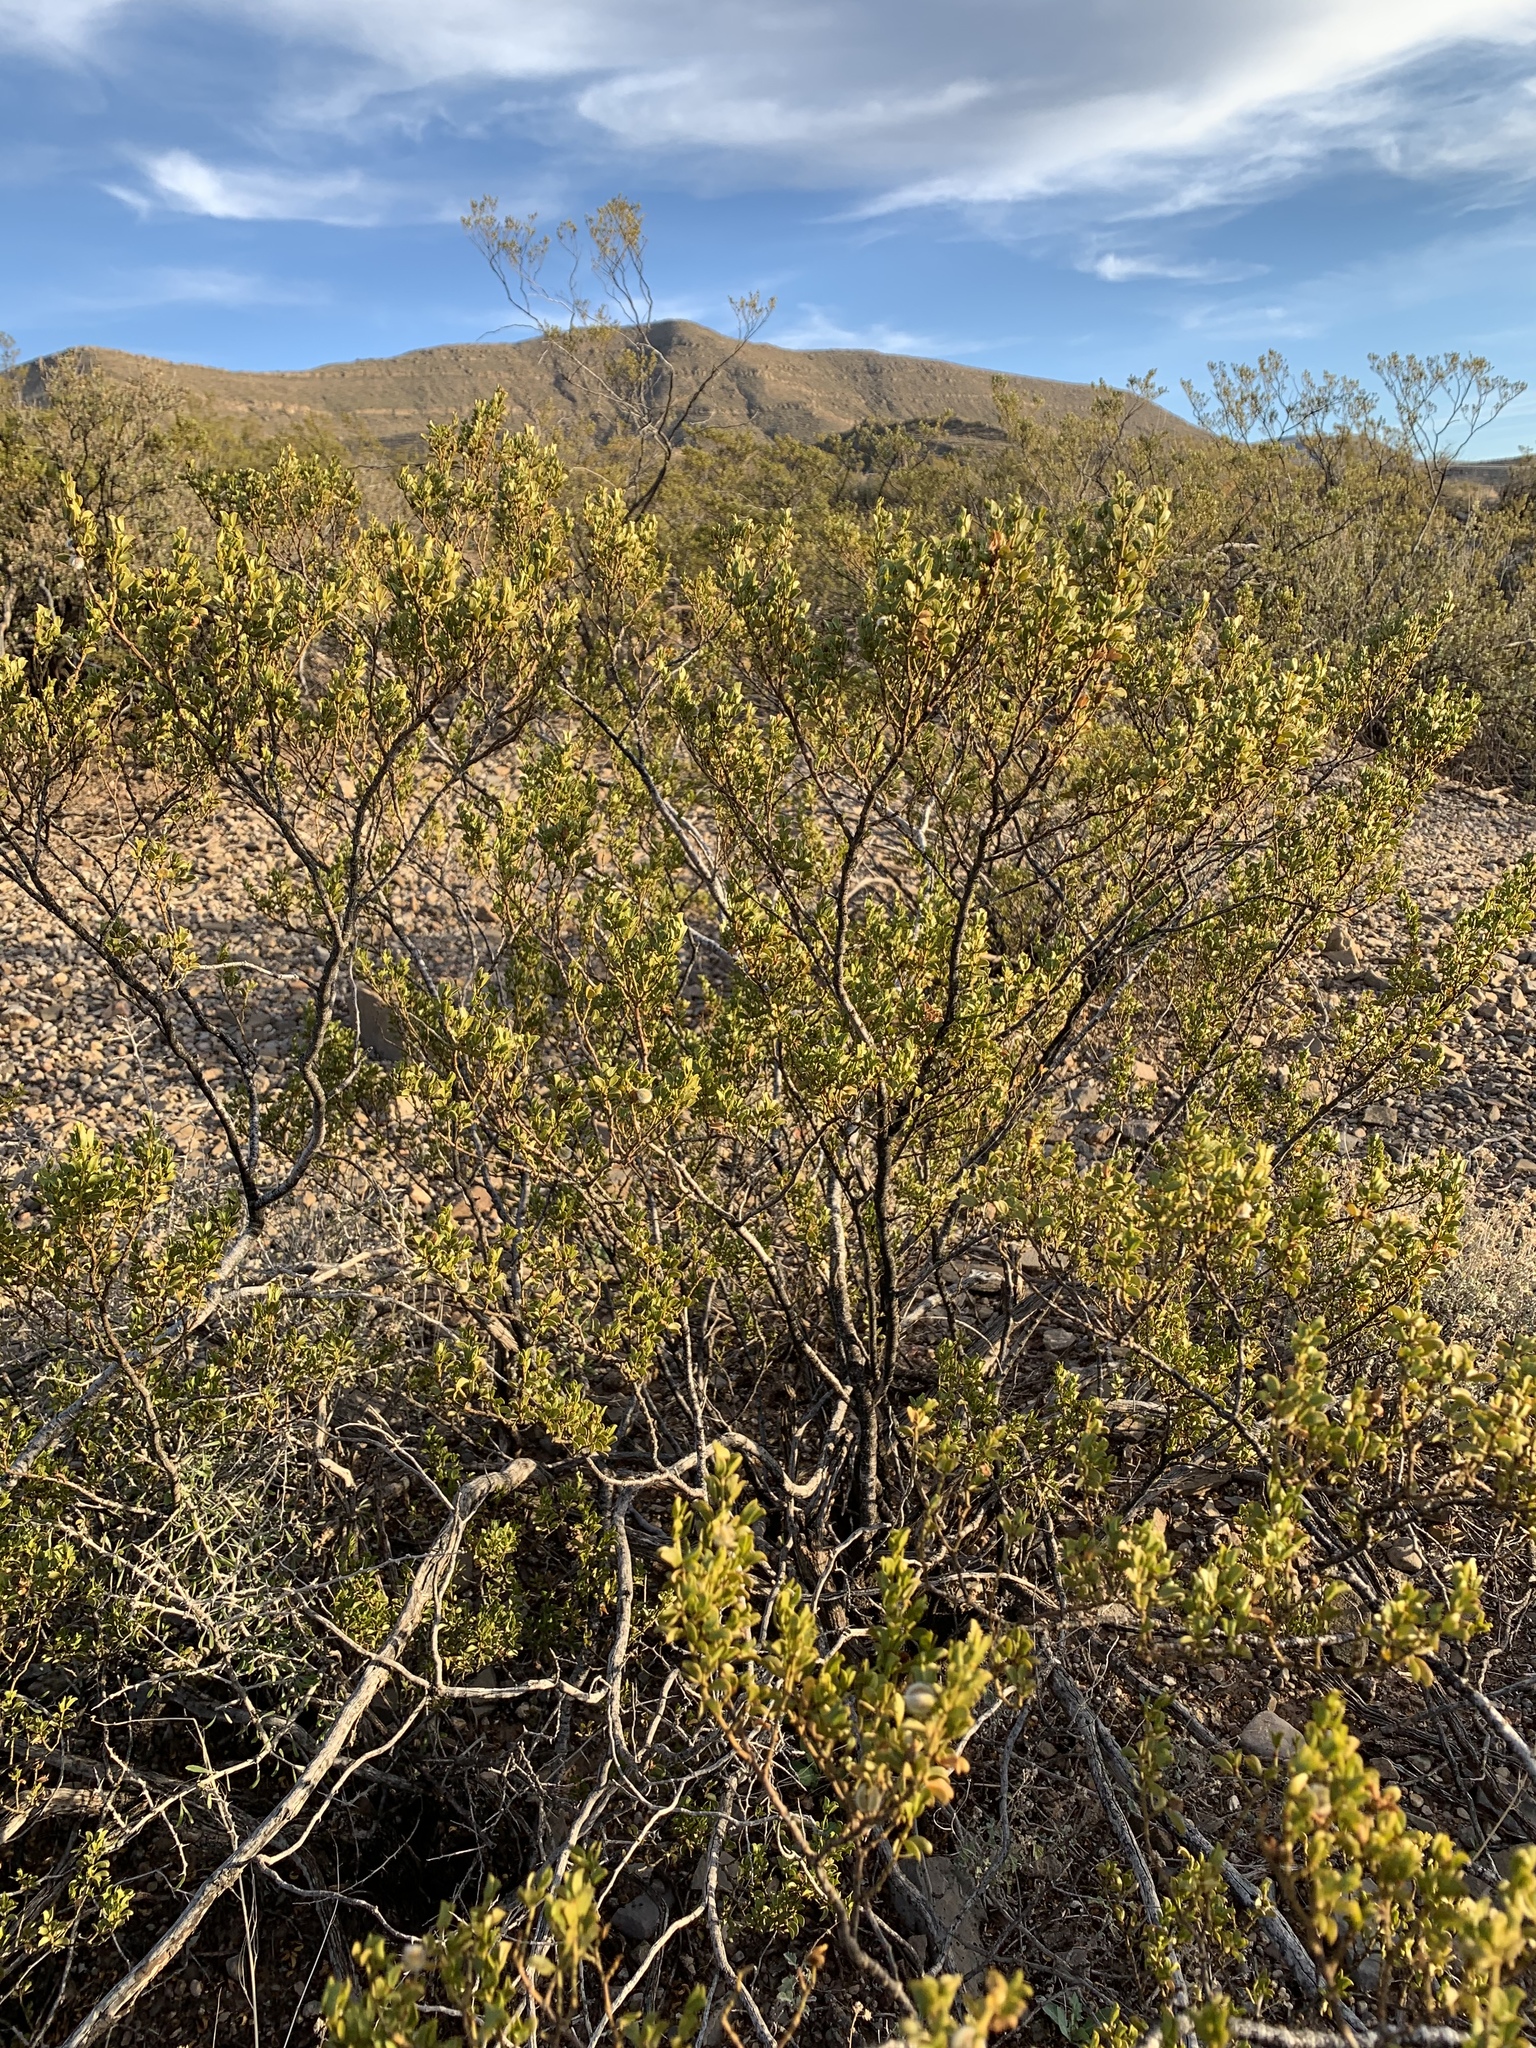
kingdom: Plantae
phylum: Tracheophyta
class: Magnoliopsida
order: Zygophyllales
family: Zygophyllaceae
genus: Larrea
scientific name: Larrea tridentata
